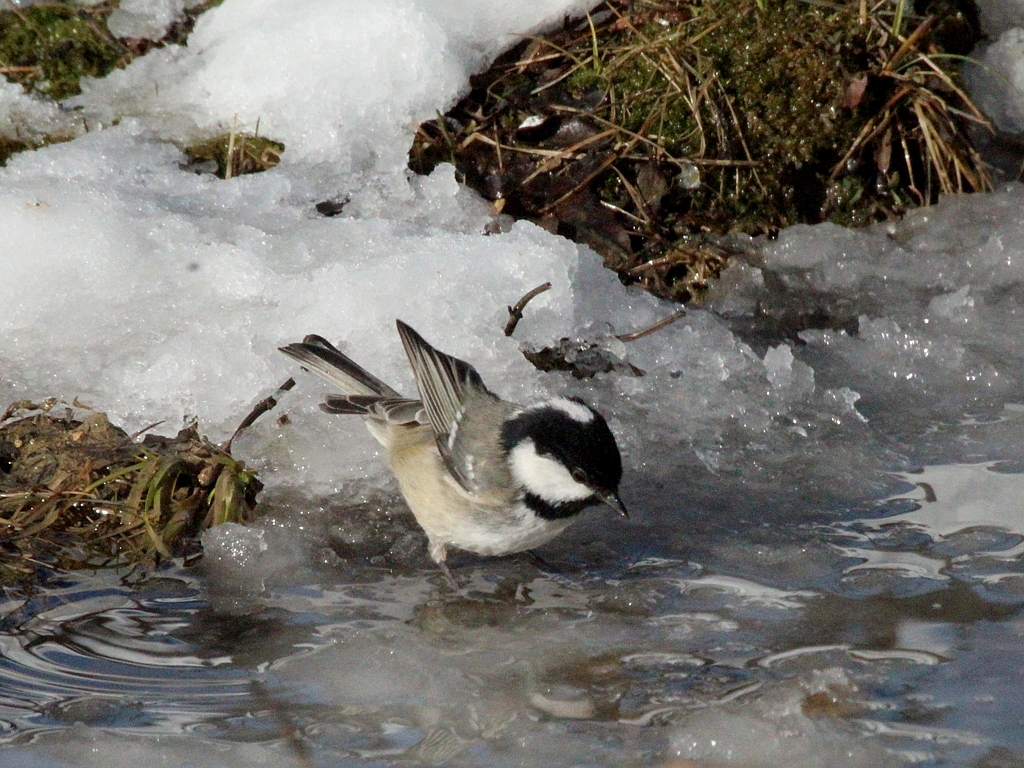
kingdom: Animalia
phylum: Chordata
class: Aves
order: Passeriformes
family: Paridae
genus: Periparus
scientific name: Periparus ater
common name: Coal tit
